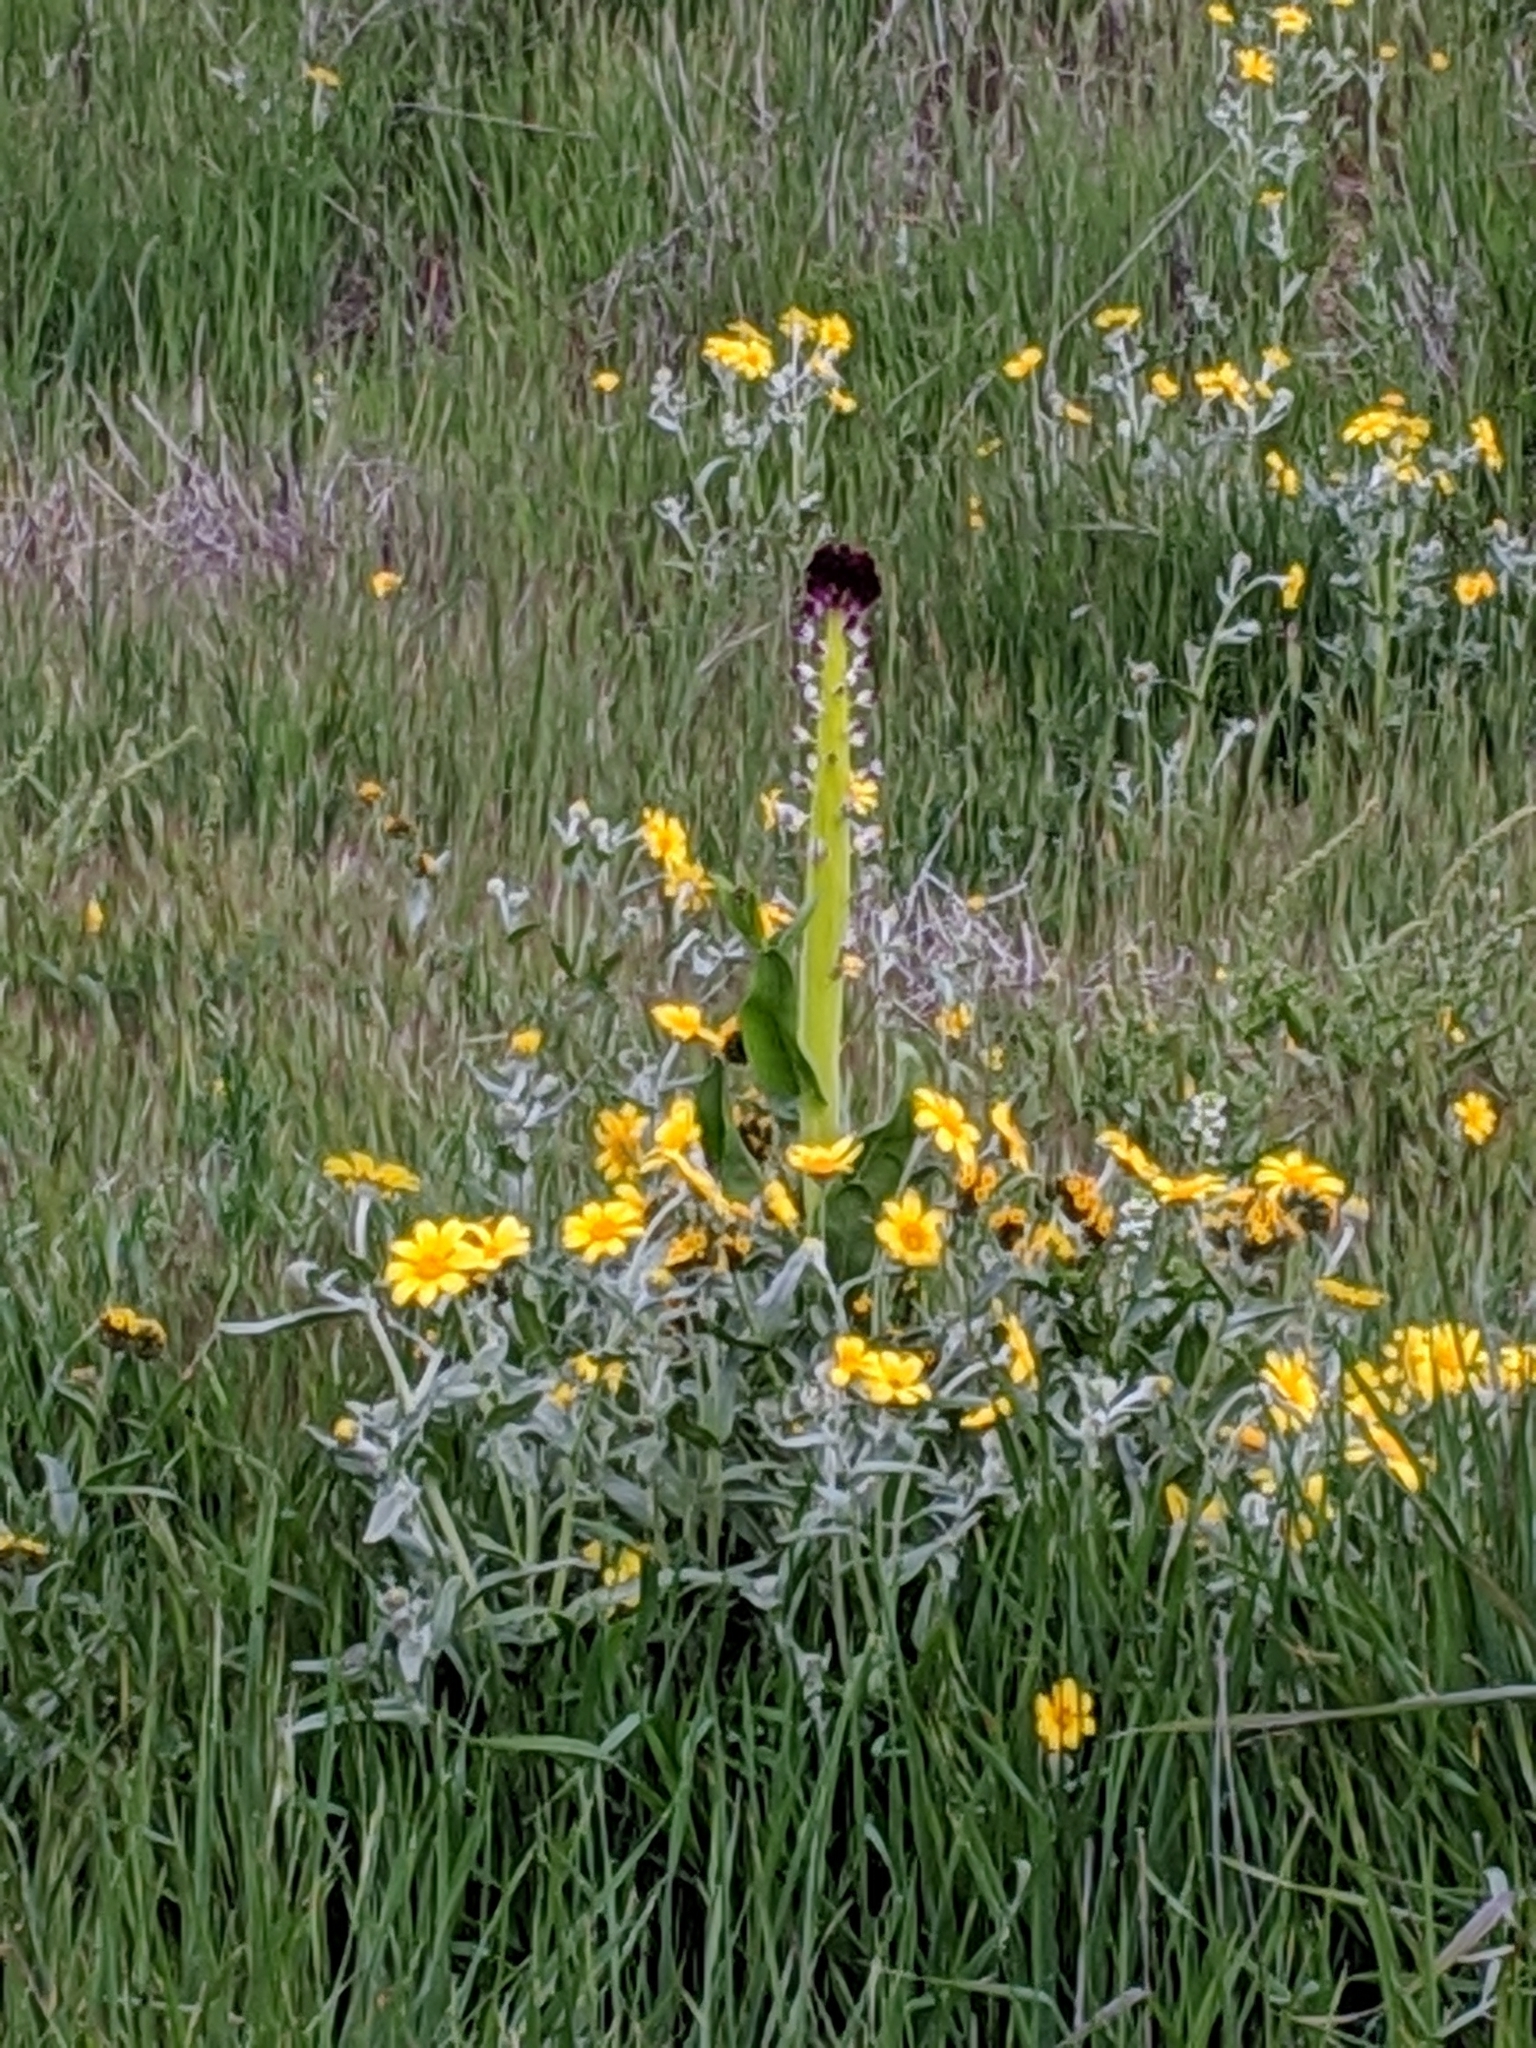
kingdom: Plantae
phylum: Tracheophyta
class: Magnoliopsida
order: Brassicales
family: Brassicaceae
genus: Streptanthus
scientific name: Streptanthus inflatus
